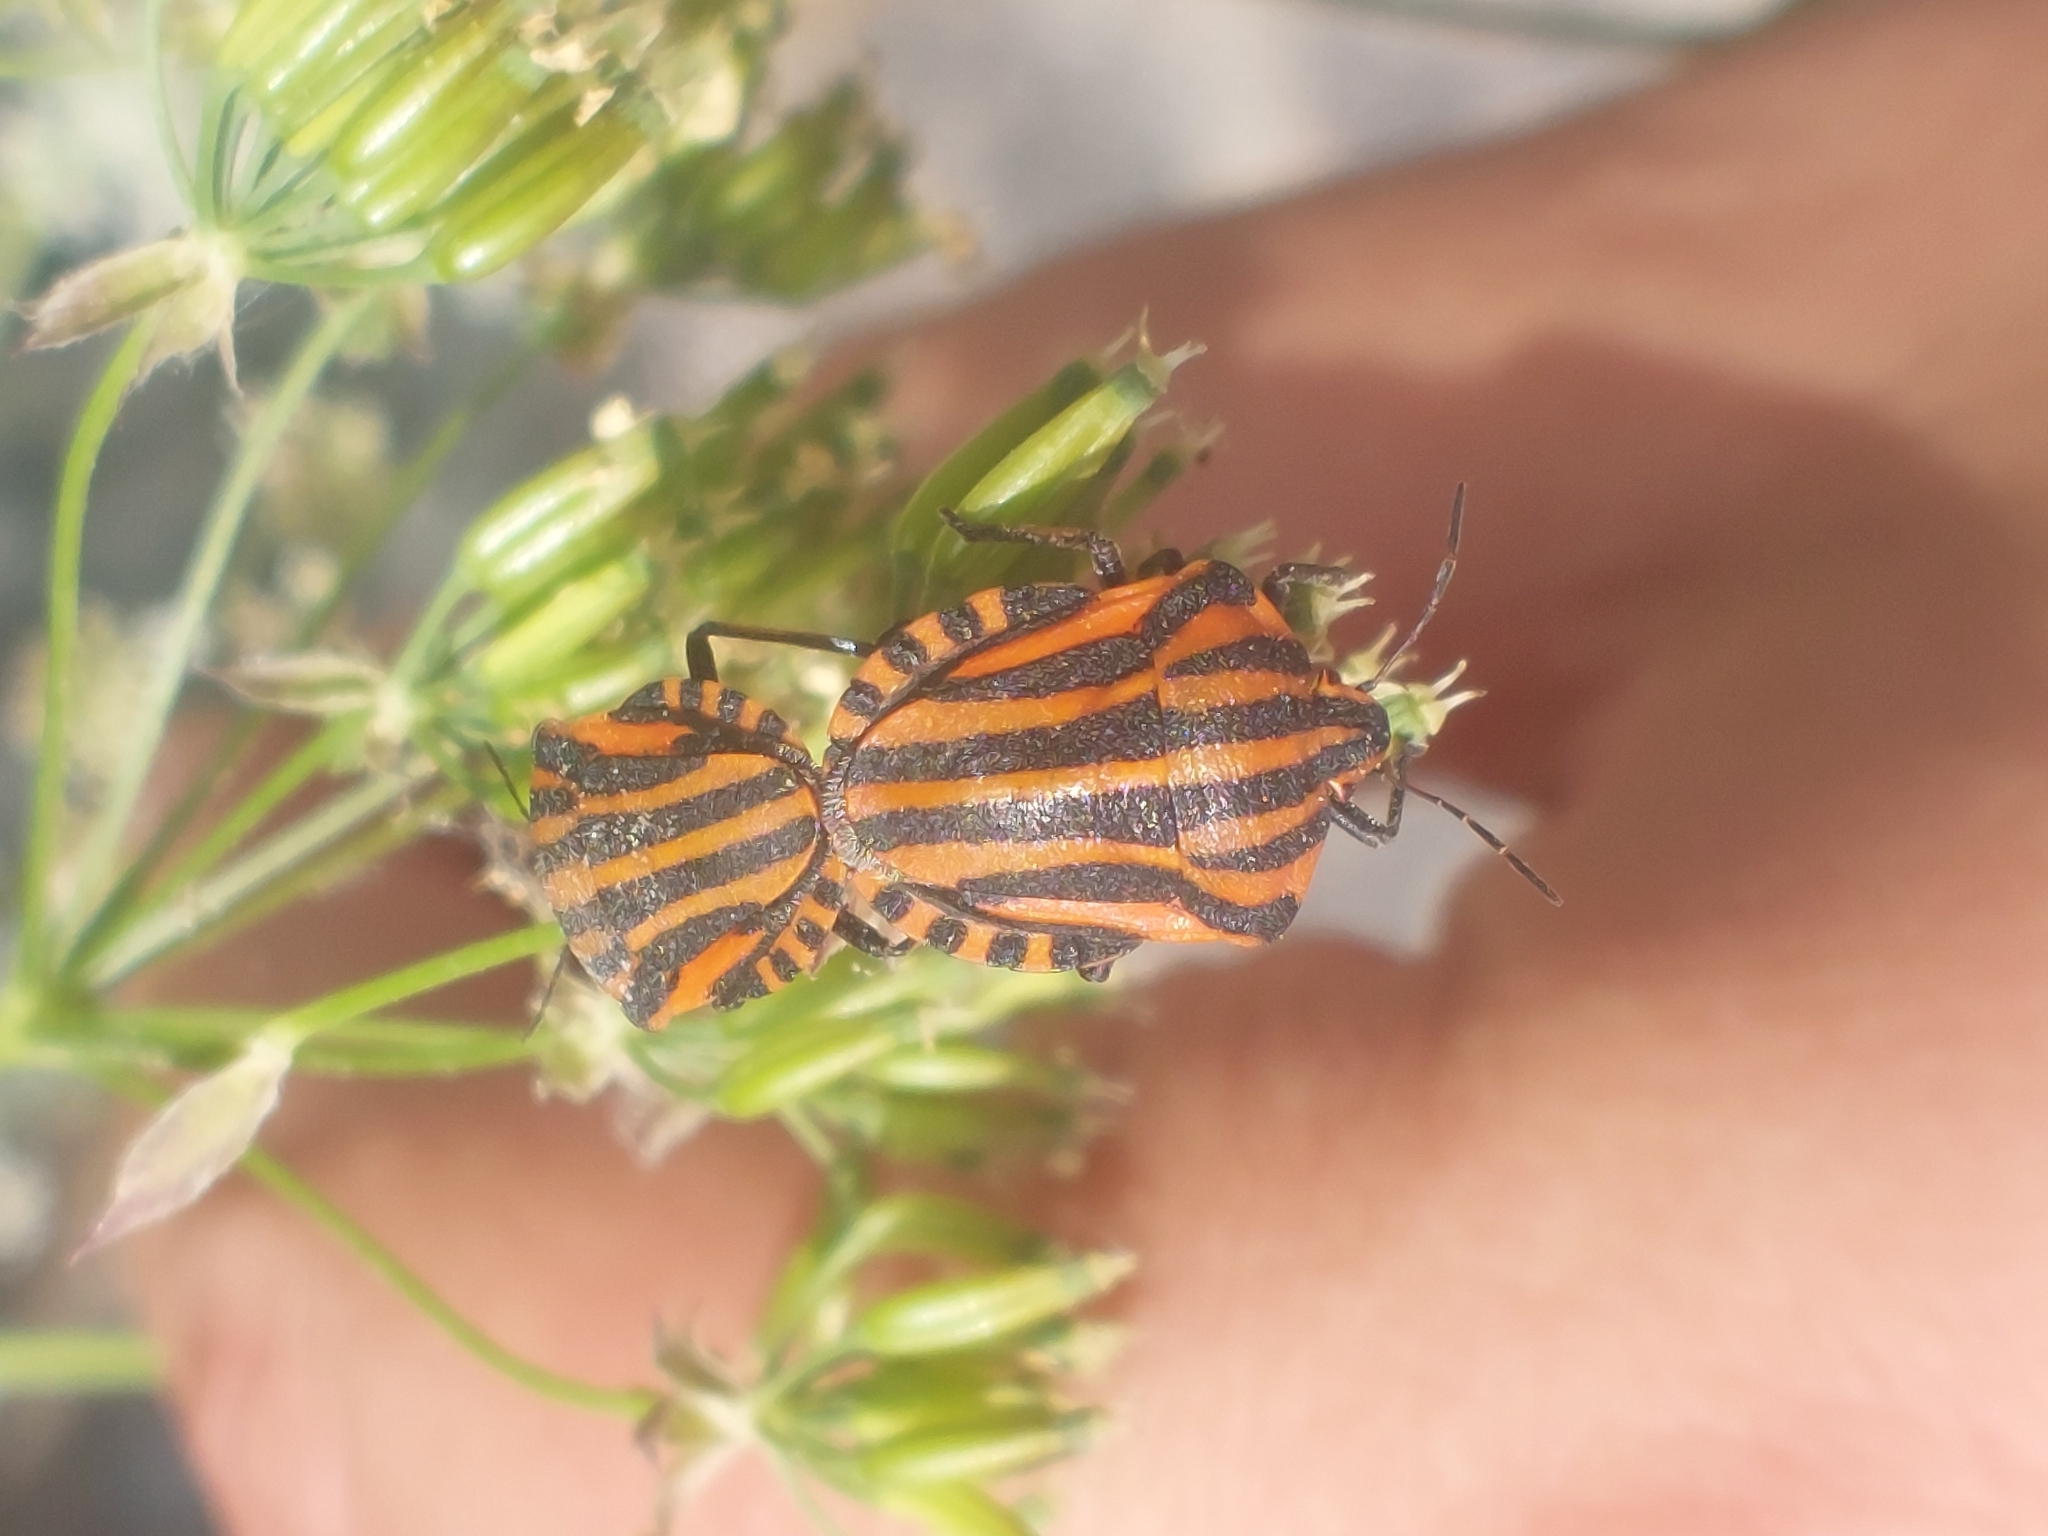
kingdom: Animalia
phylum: Arthropoda
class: Insecta
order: Hemiptera
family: Pentatomidae
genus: Graphosoma
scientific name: Graphosoma italicum
